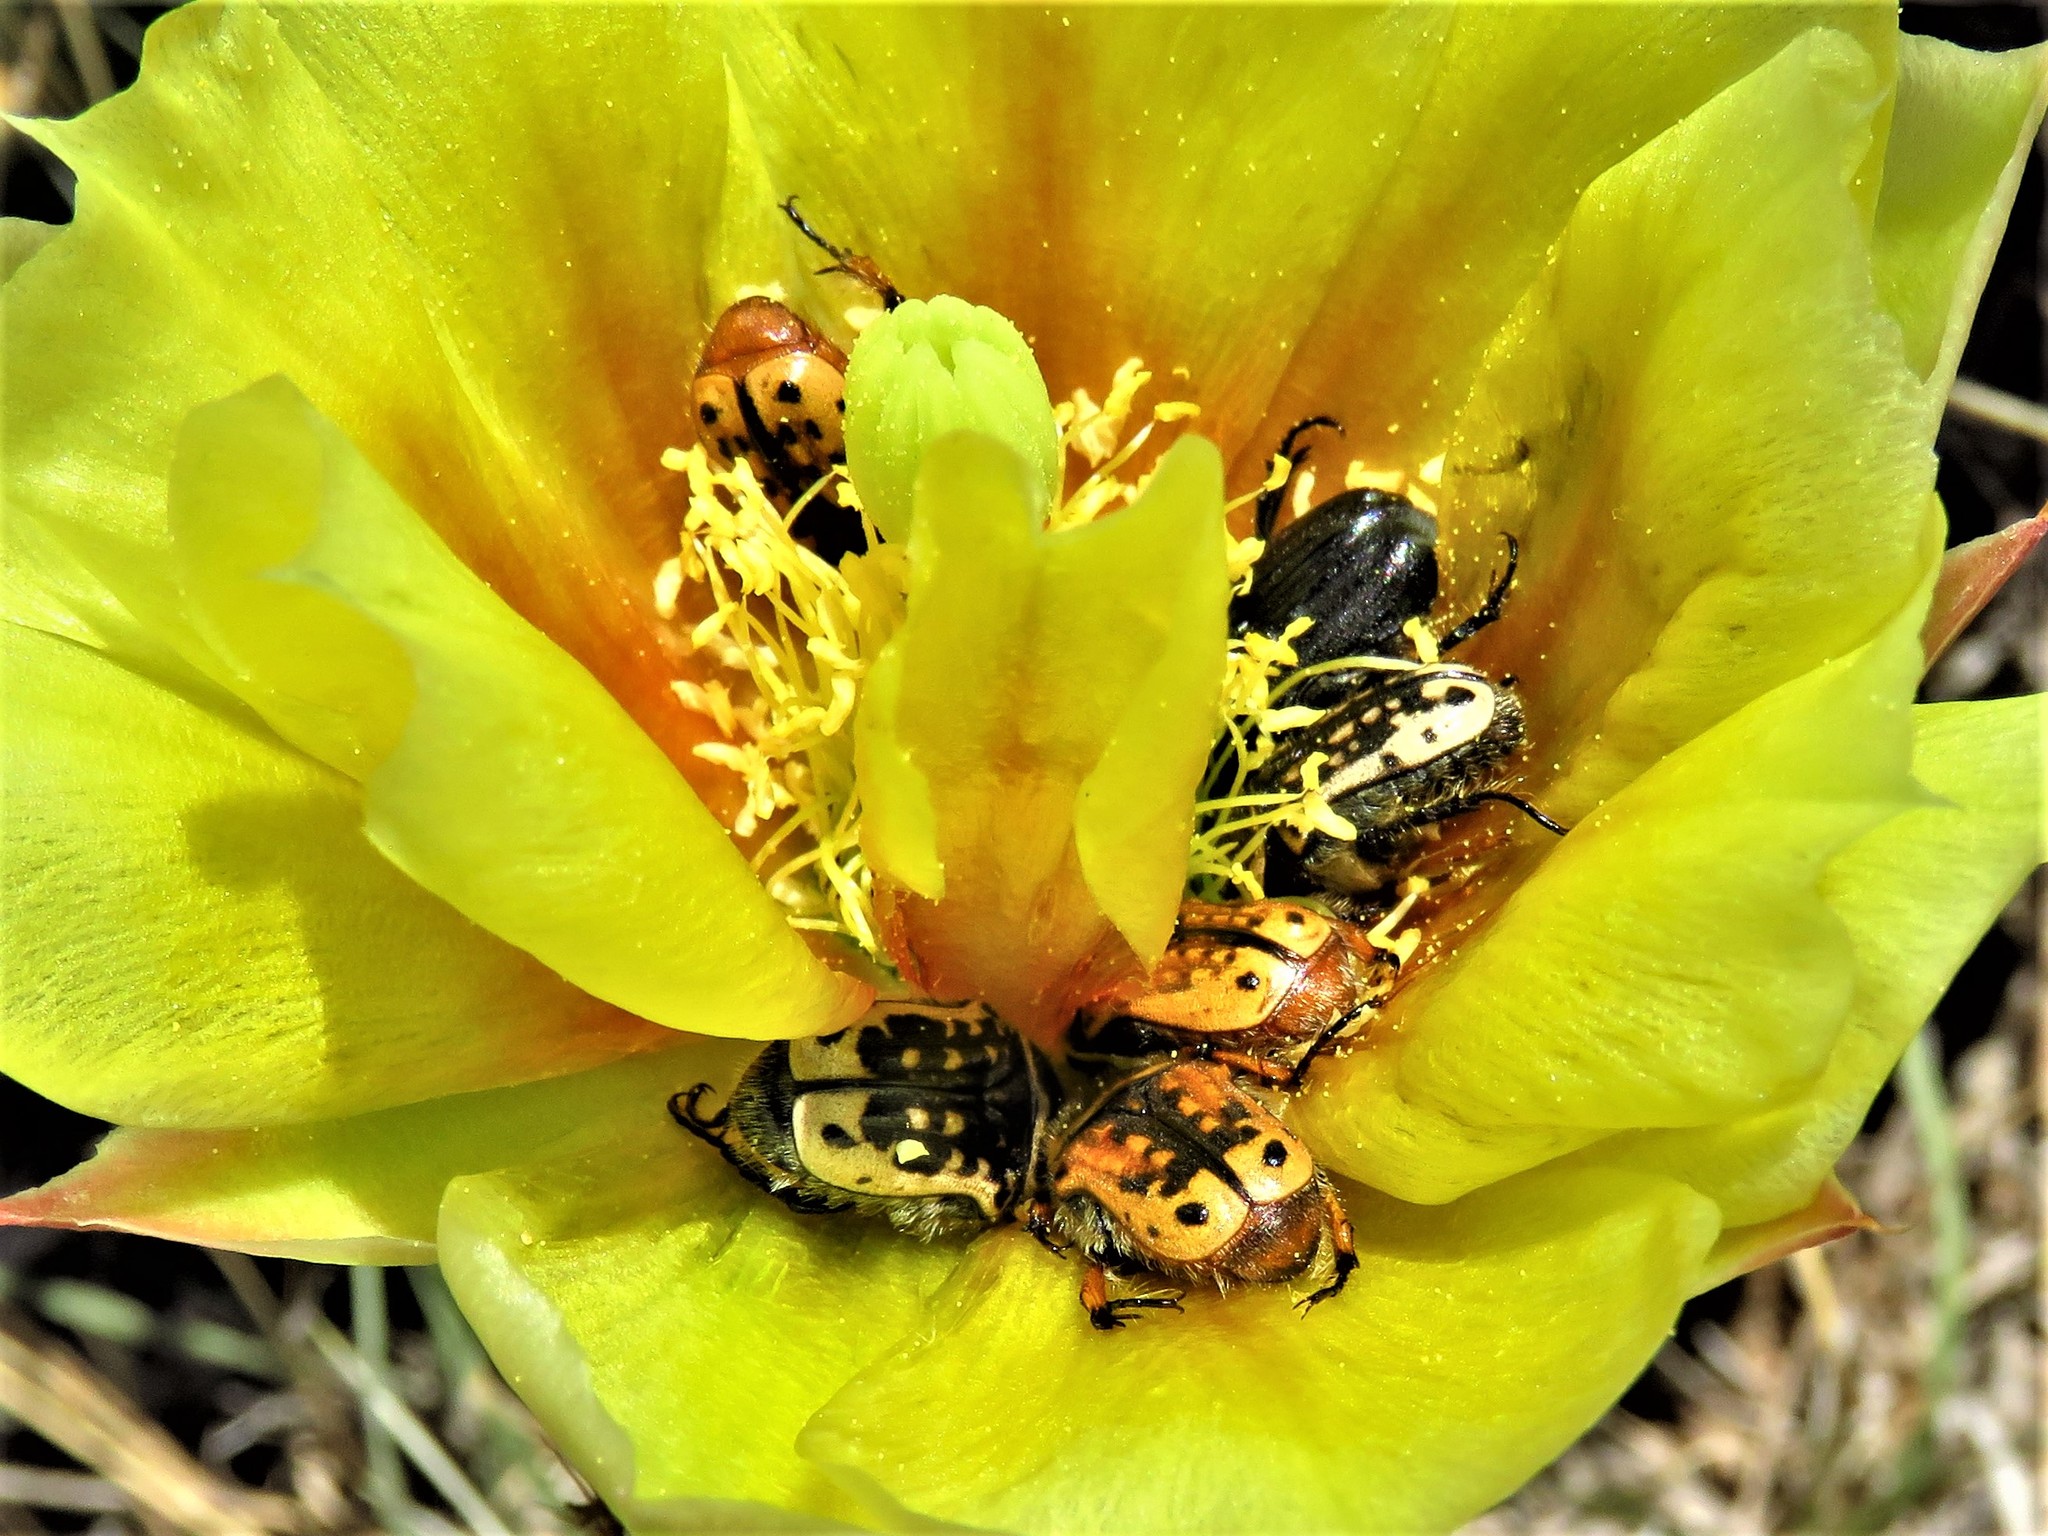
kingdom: Animalia
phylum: Arthropoda
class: Insecta
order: Coleoptera
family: Scarabaeidae
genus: Euphoria
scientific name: Euphoria kernii
